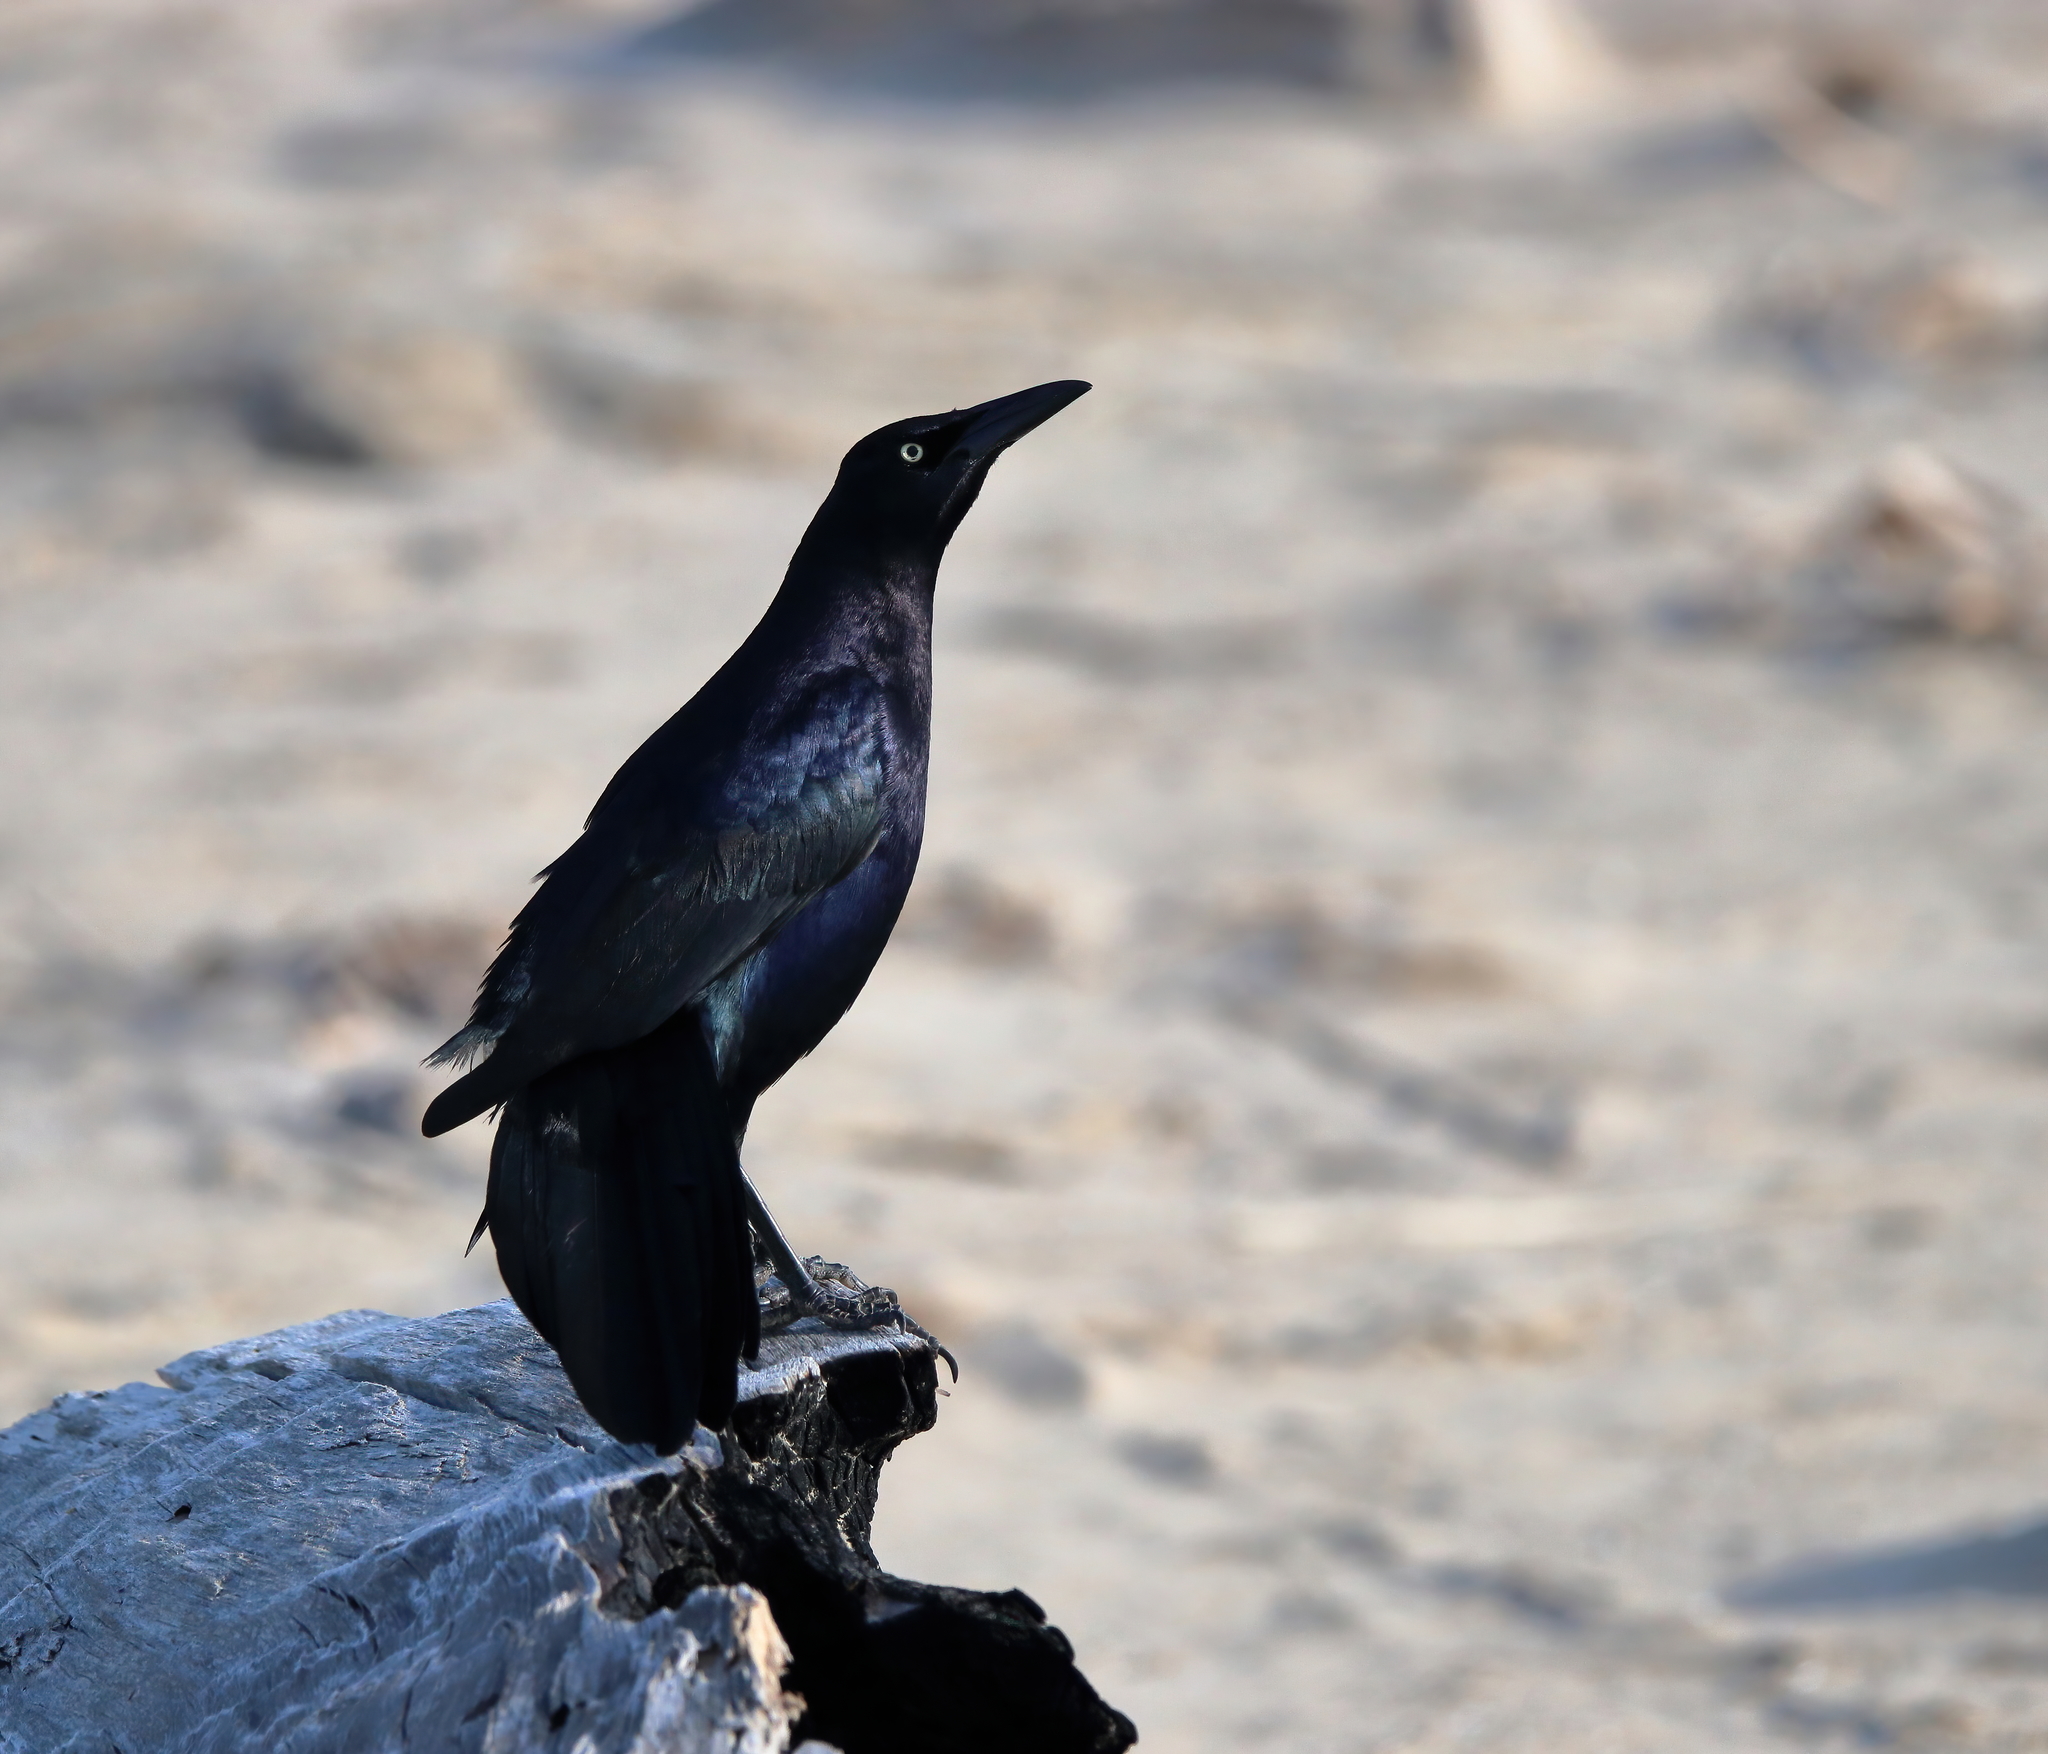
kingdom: Animalia
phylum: Chordata
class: Aves
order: Passeriformes
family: Icteridae
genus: Quiscalus
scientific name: Quiscalus mexicanus
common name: Great-tailed grackle
